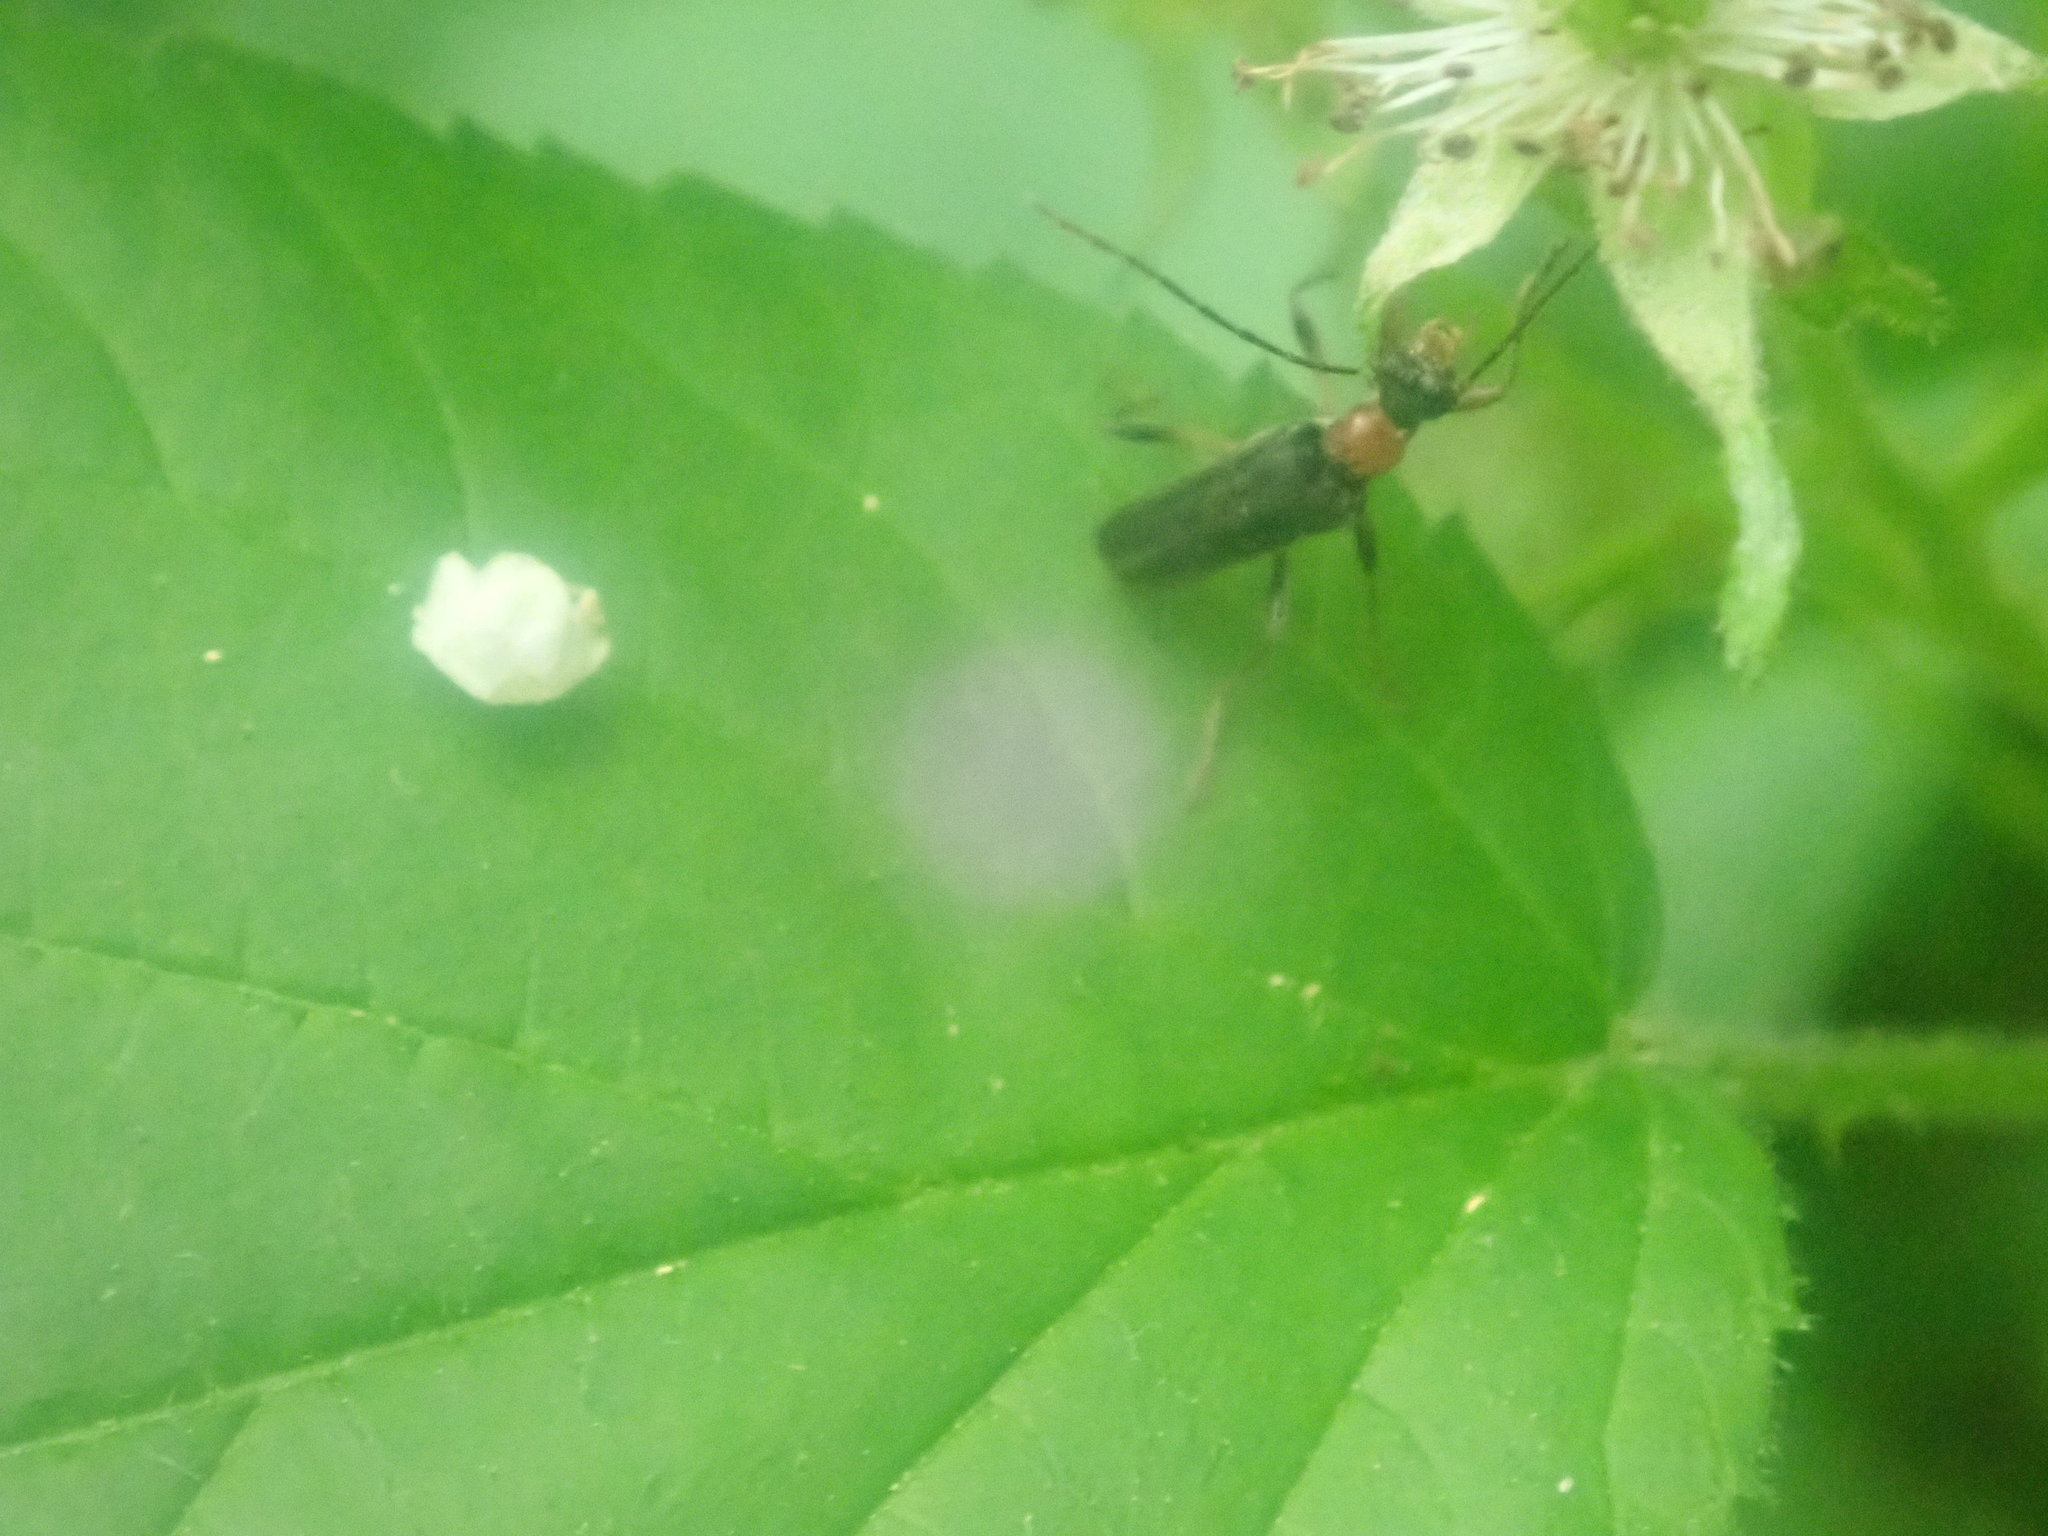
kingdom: Animalia
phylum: Arthropoda
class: Insecta
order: Coleoptera
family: Cerambycidae
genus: Pidonia
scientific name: Pidonia ruficollis
